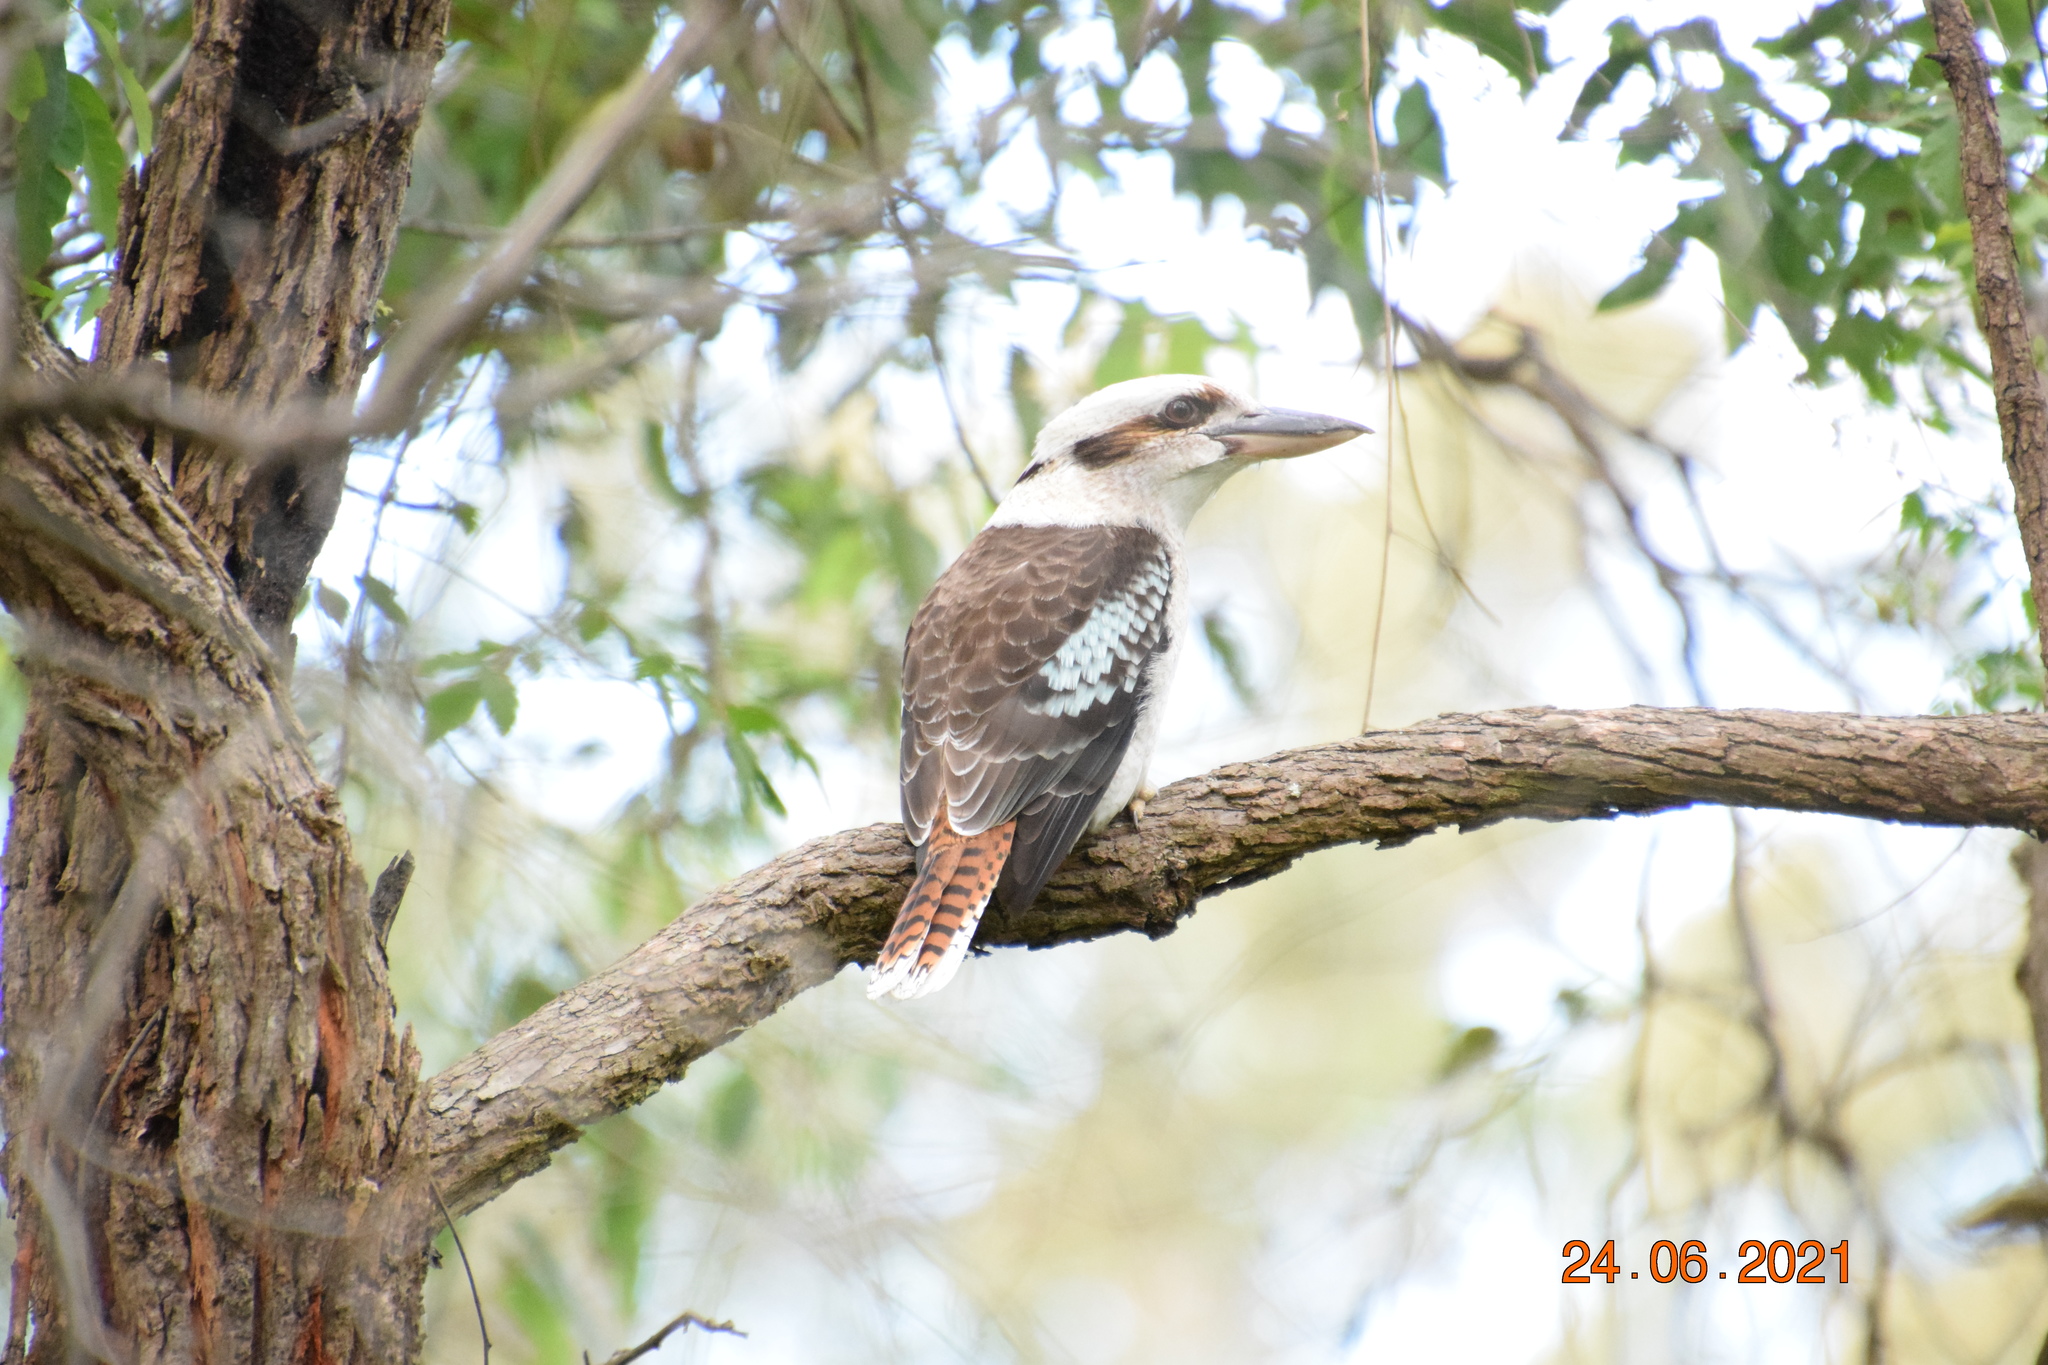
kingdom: Animalia
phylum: Chordata
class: Aves
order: Coraciiformes
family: Alcedinidae
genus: Dacelo
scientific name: Dacelo novaeguineae
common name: Laughing kookaburra
